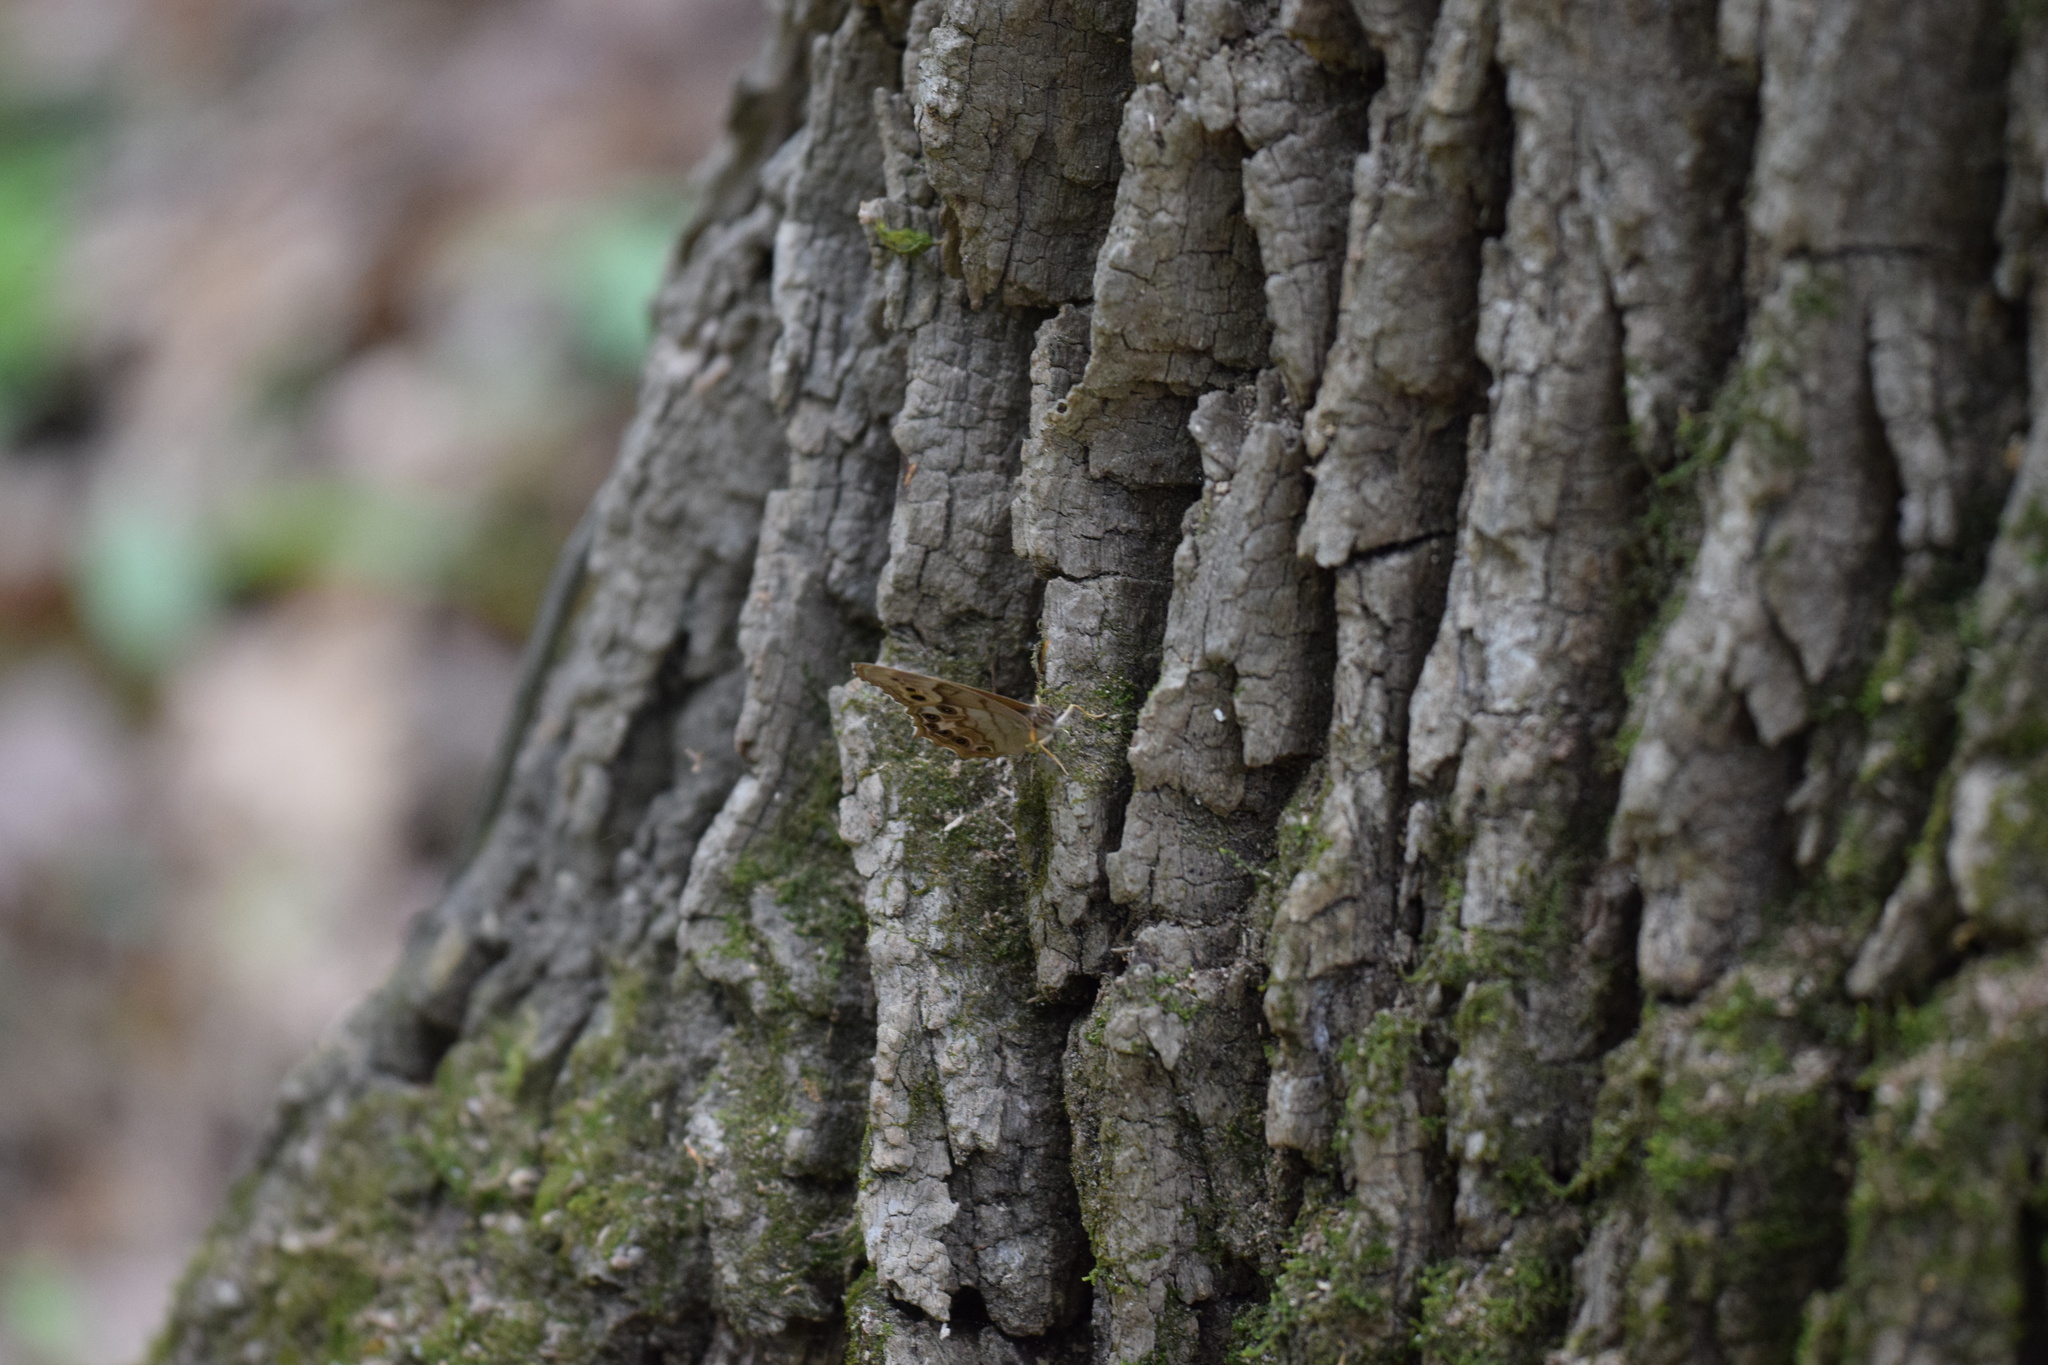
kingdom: Animalia
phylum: Arthropoda
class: Insecta
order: Lepidoptera
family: Nymphalidae
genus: Enodia
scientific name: Enodia portlandia
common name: Southern pearly-eye
